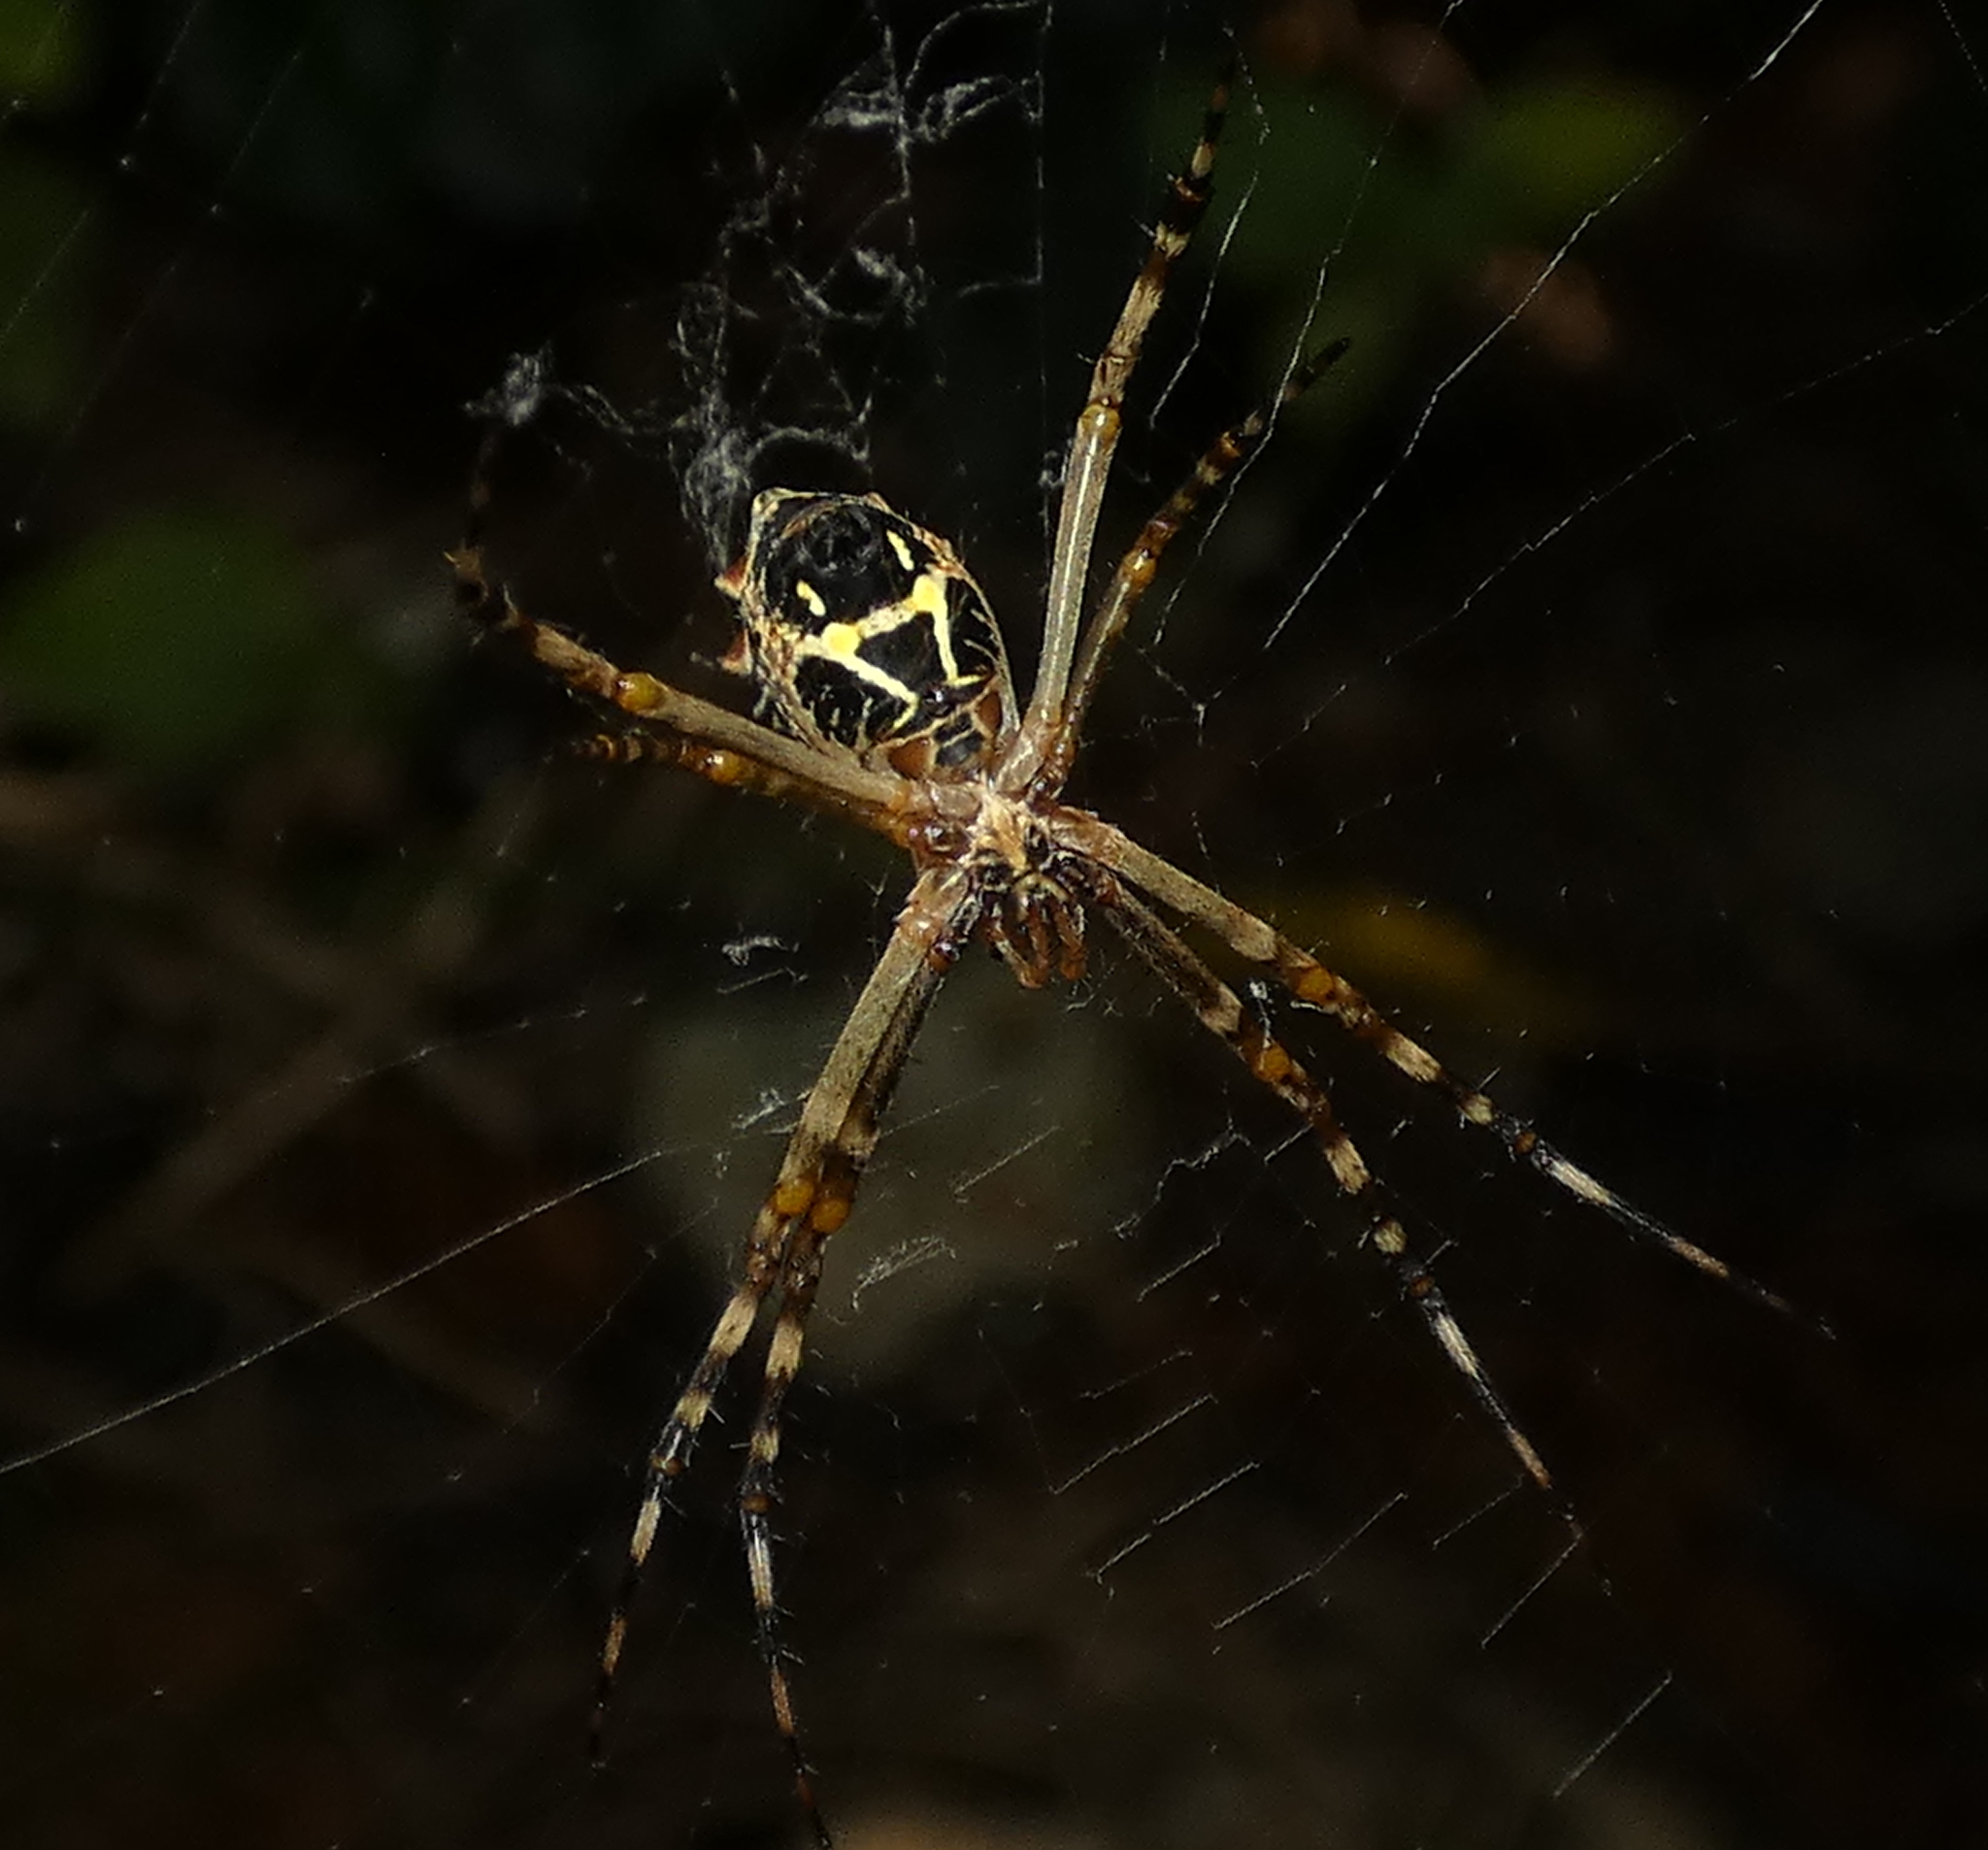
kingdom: Animalia
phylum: Arthropoda
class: Arachnida
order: Araneae
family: Araneidae
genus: Argiope
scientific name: Argiope argentata
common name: Orb weavers
